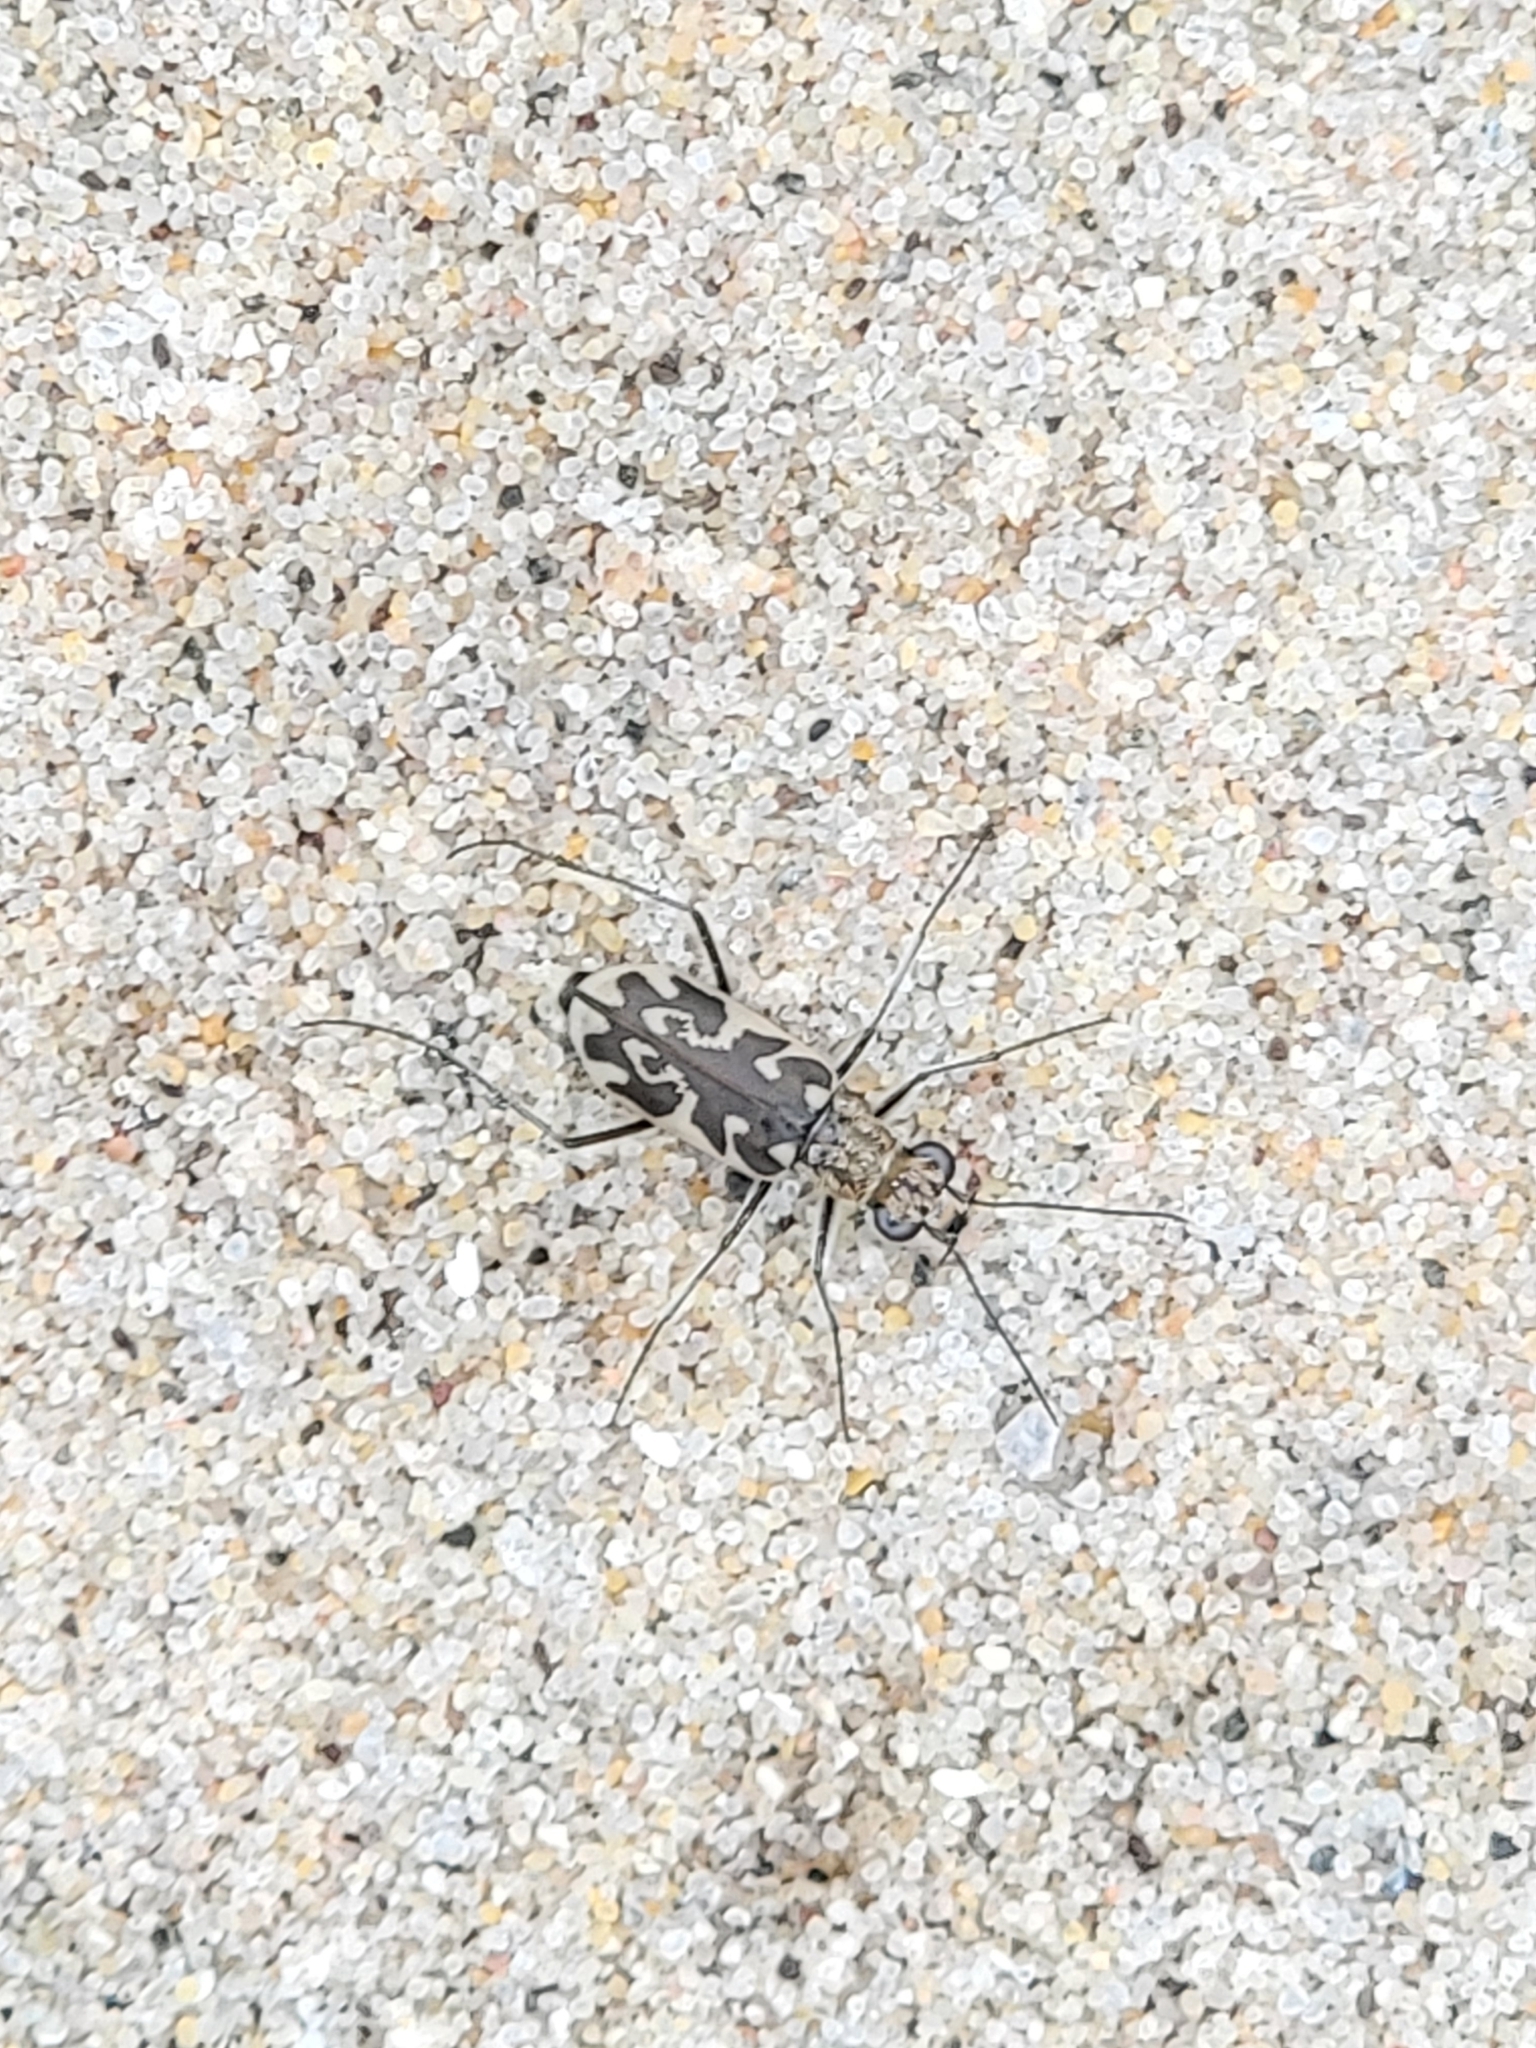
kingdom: Animalia
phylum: Arthropoda
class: Insecta
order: Coleoptera
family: Carabidae
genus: Ellipsoptera
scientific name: Ellipsoptera macra
